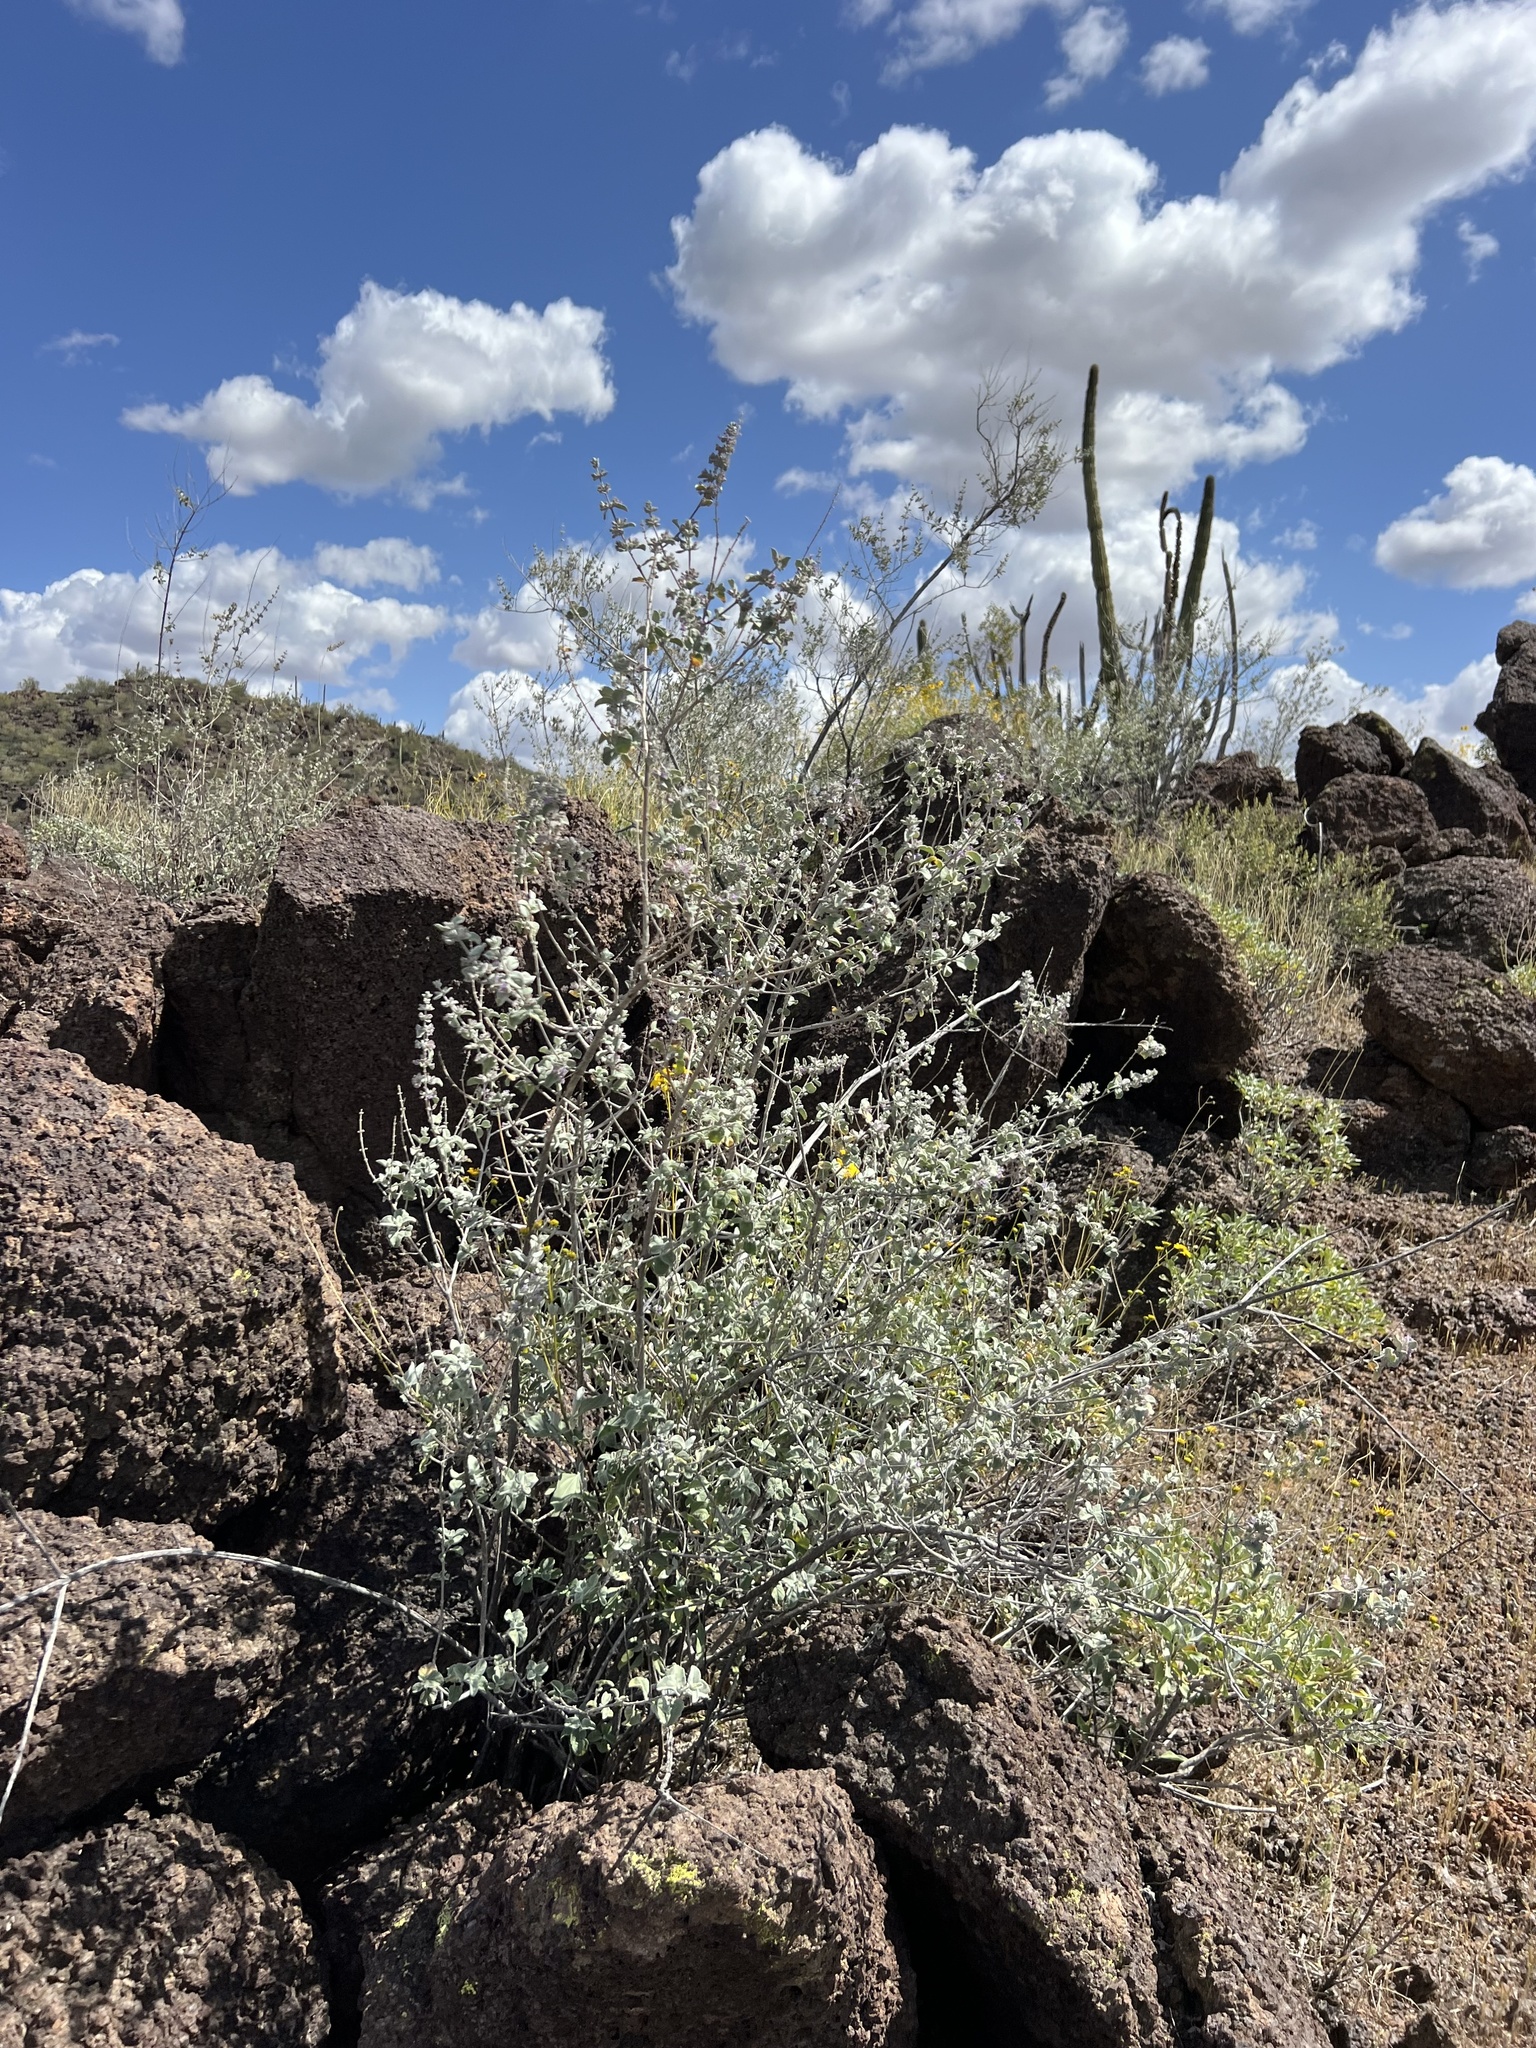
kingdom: Plantae
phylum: Tracheophyta
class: Magnoliopsida
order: Lamiales
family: Lamiaceae
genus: Condea
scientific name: Condea emoryi
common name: Chia
